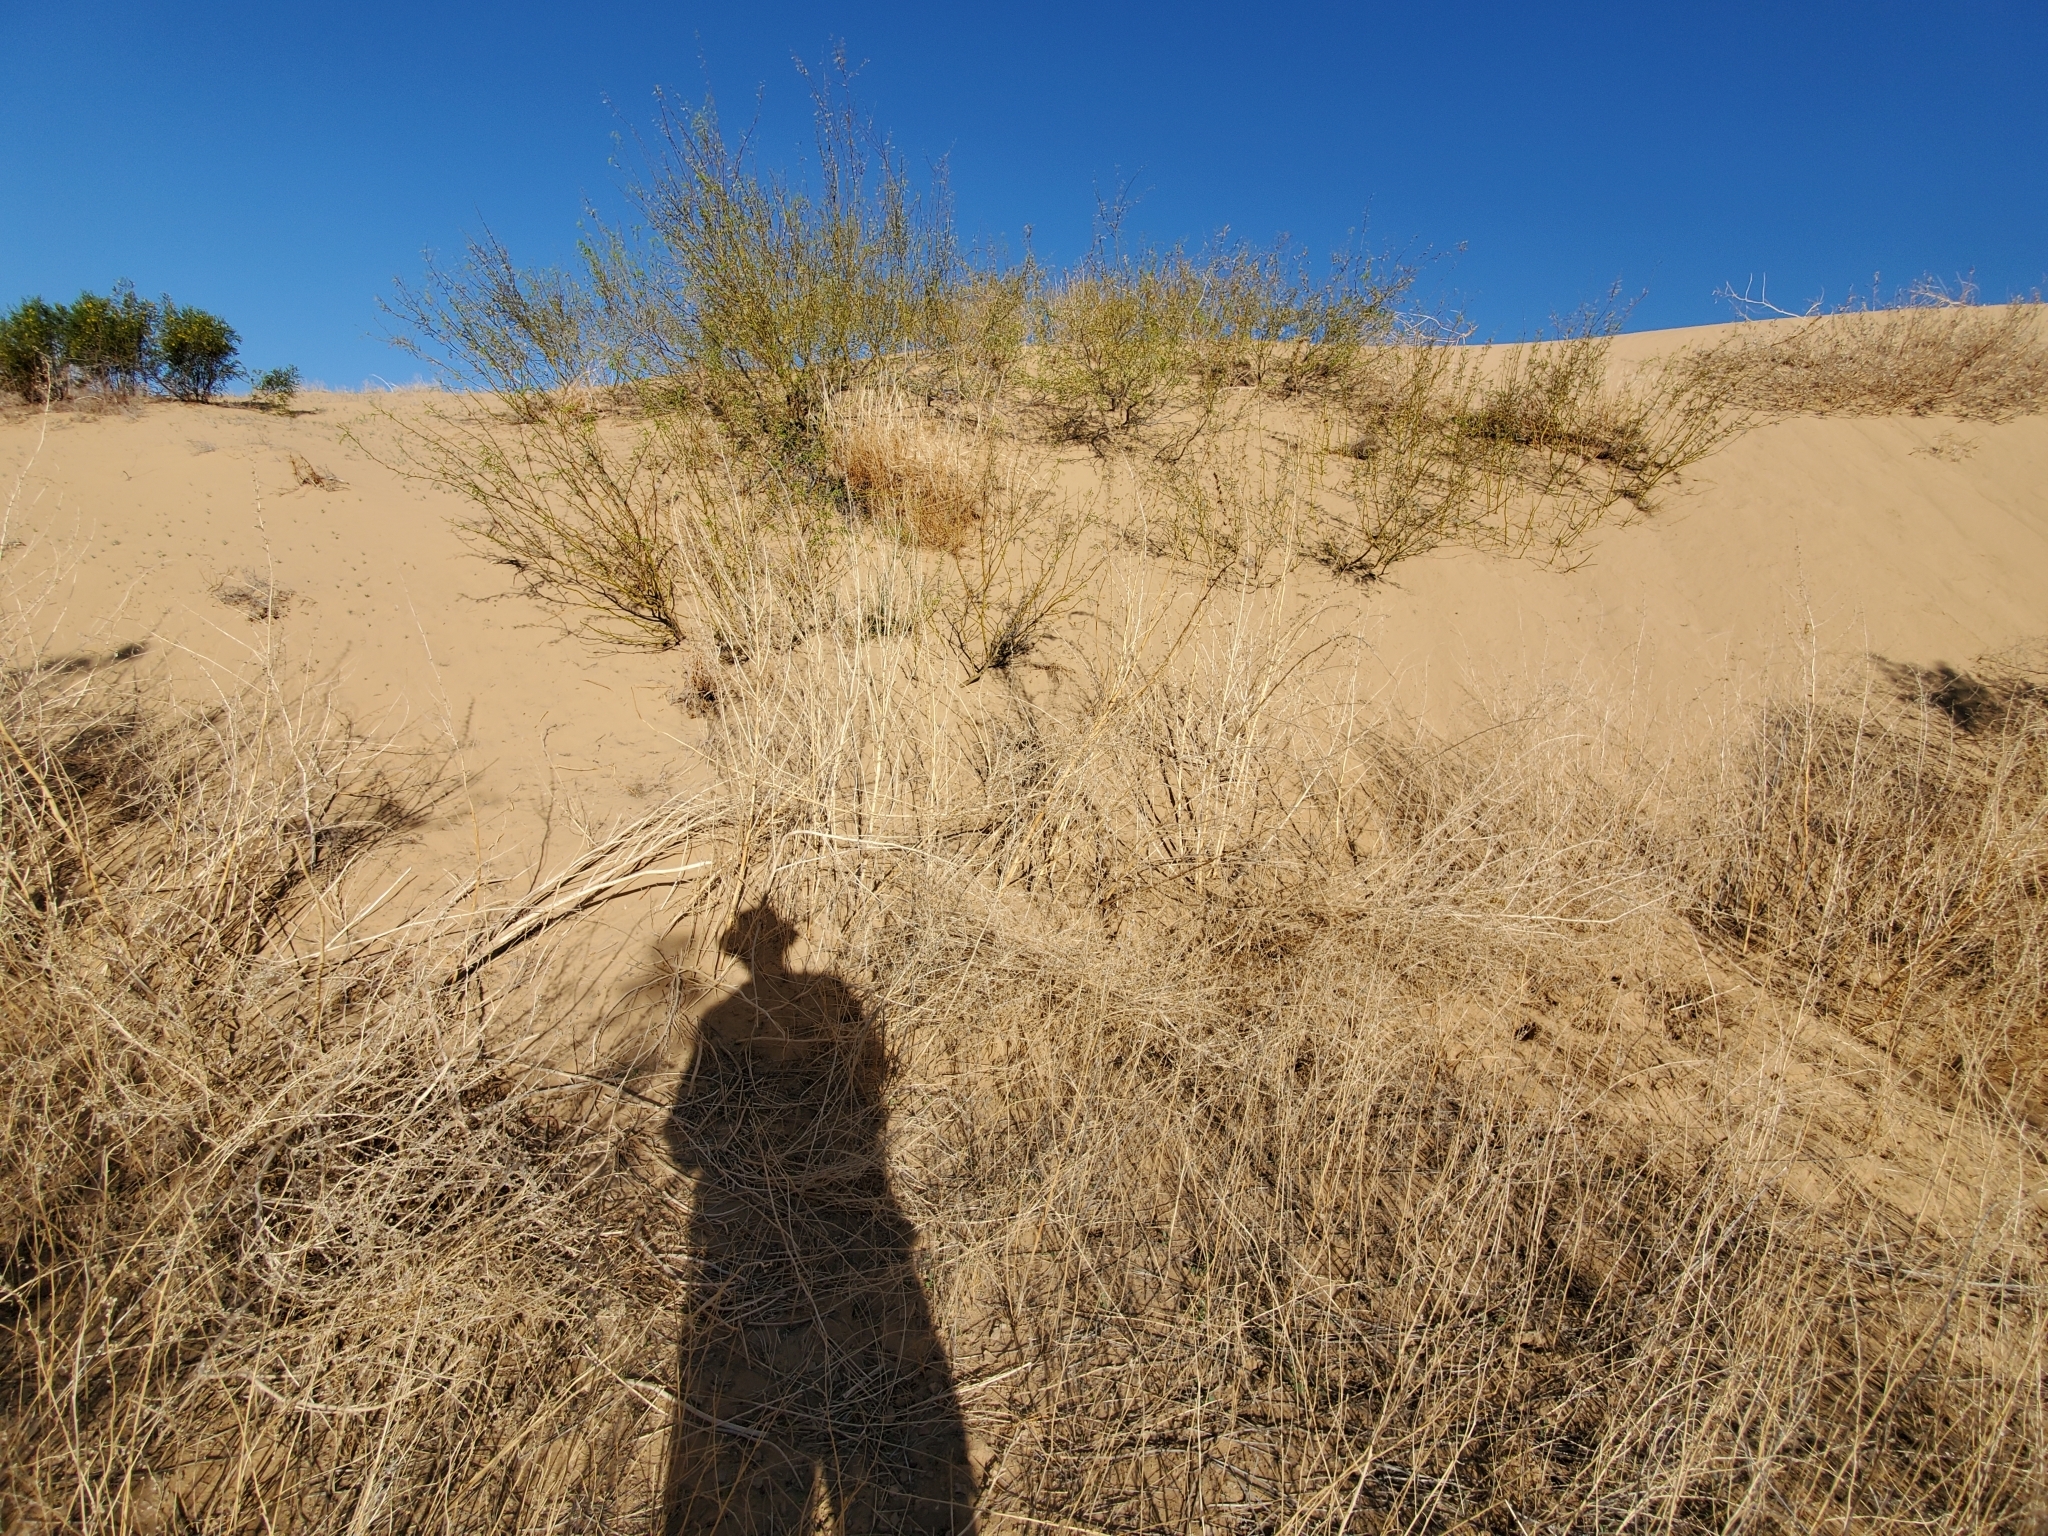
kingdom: Plantae
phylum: Tracheophyta
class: Magnoliopsida
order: Fabales
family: Fabaceae
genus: Prosopis
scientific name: Prosopis pubescens
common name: Screw-bean
